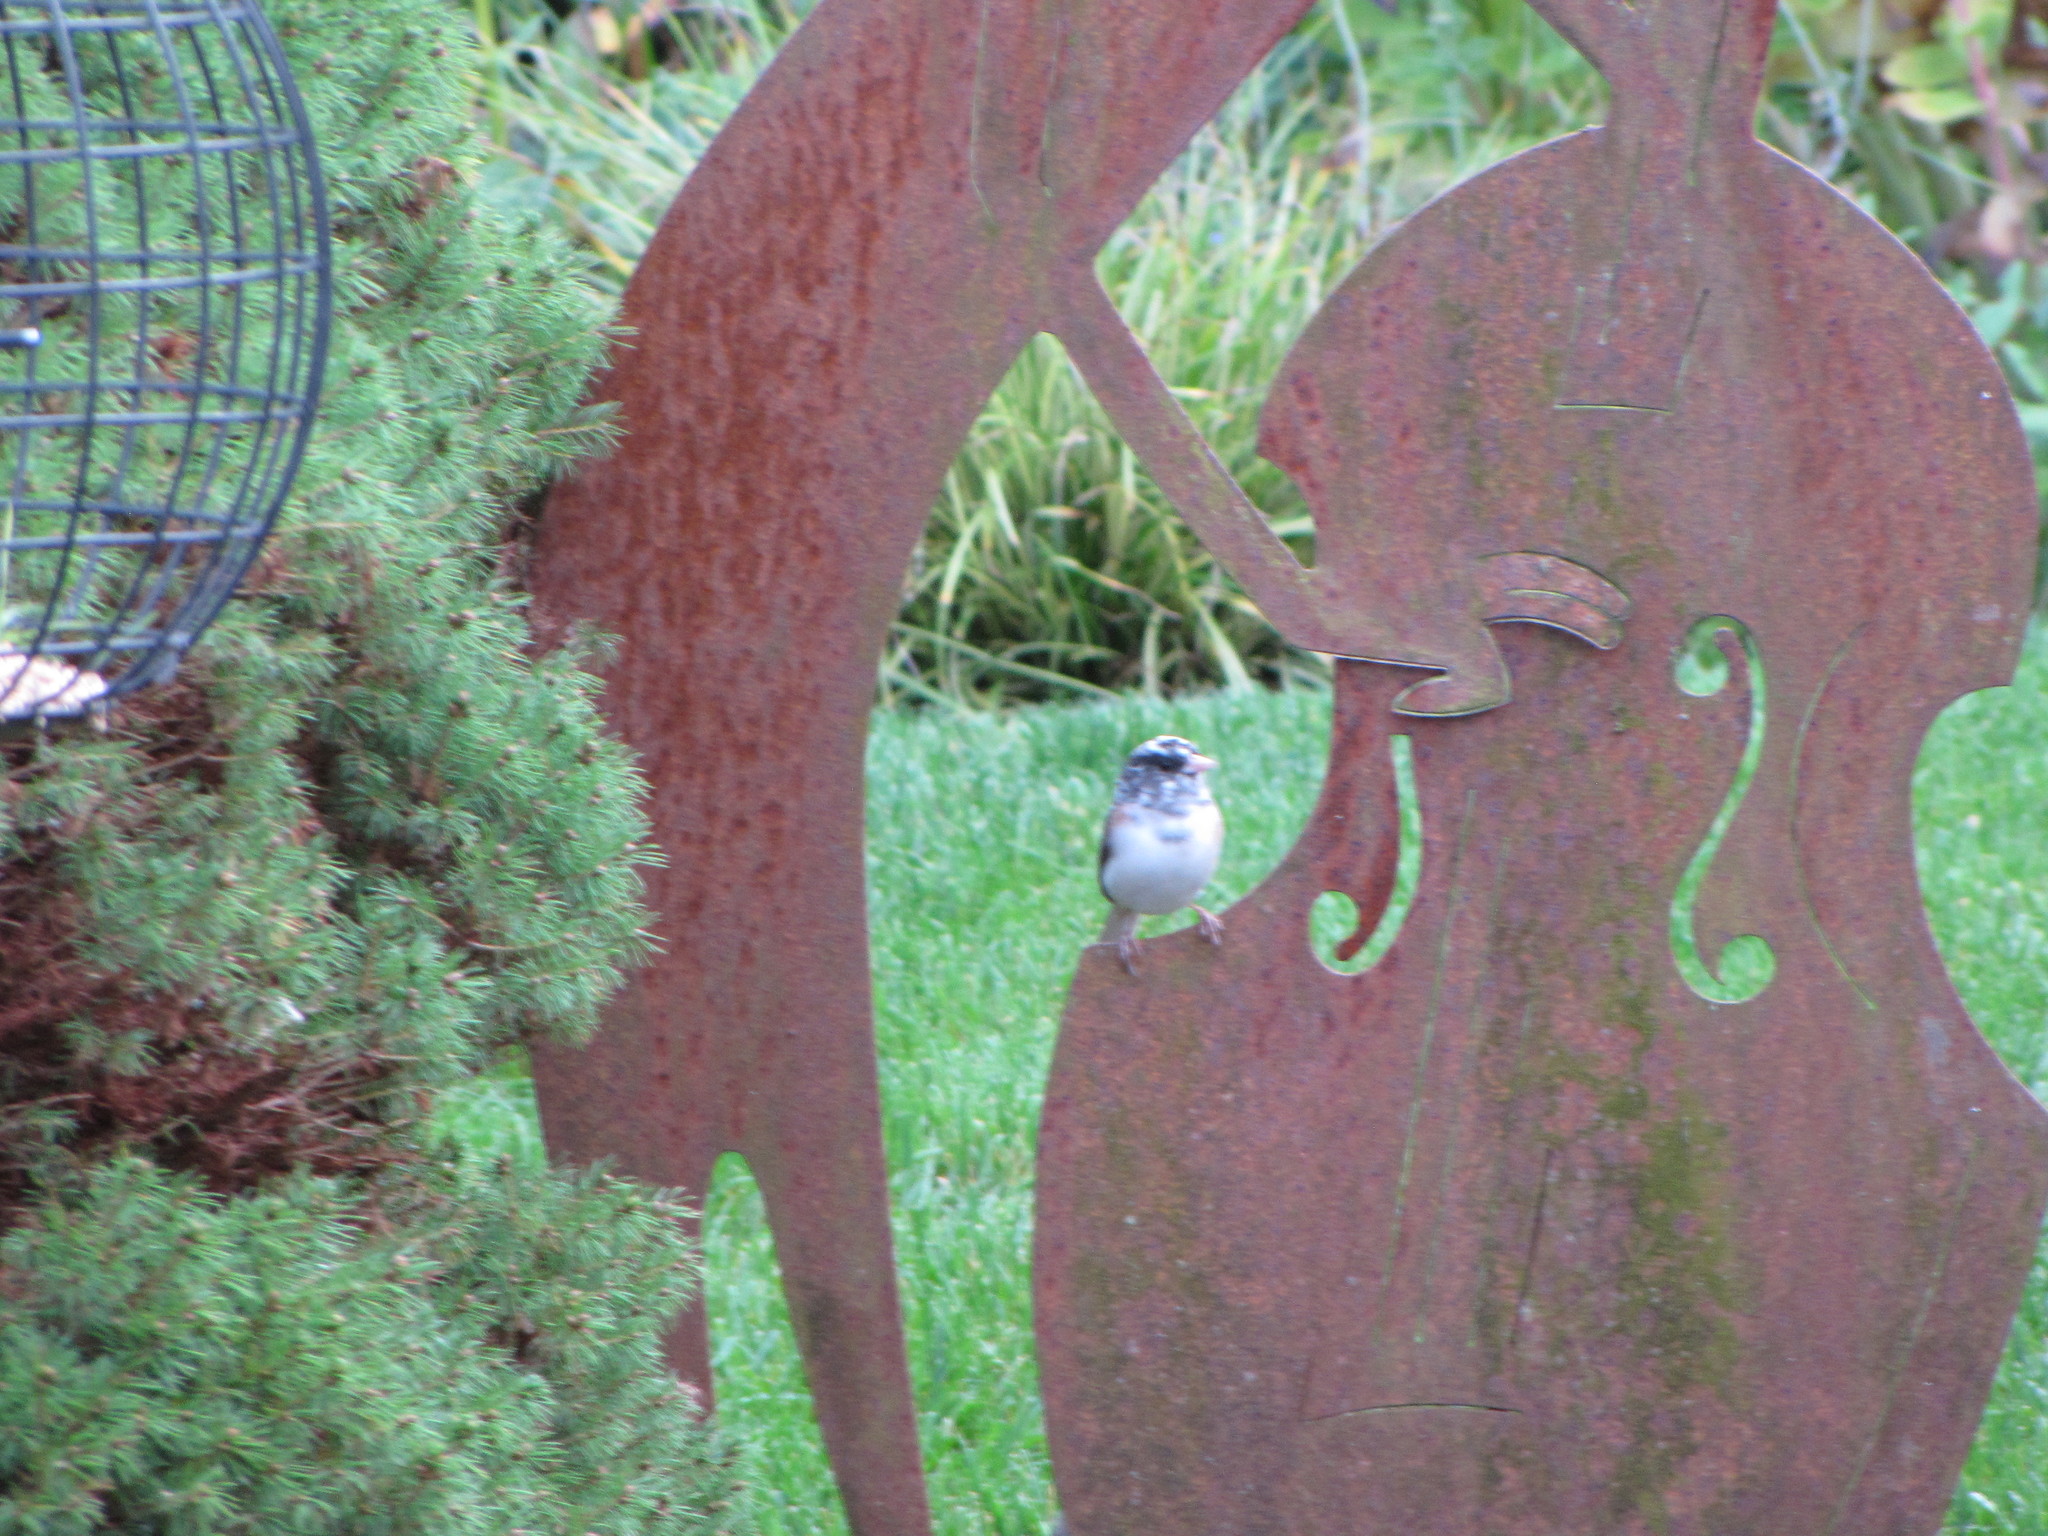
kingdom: Animalia
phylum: Chordata
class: Aves
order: Passeriformes
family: Passerellidae
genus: Junco
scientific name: Junco hyemalis
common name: Dark-eyed junco
